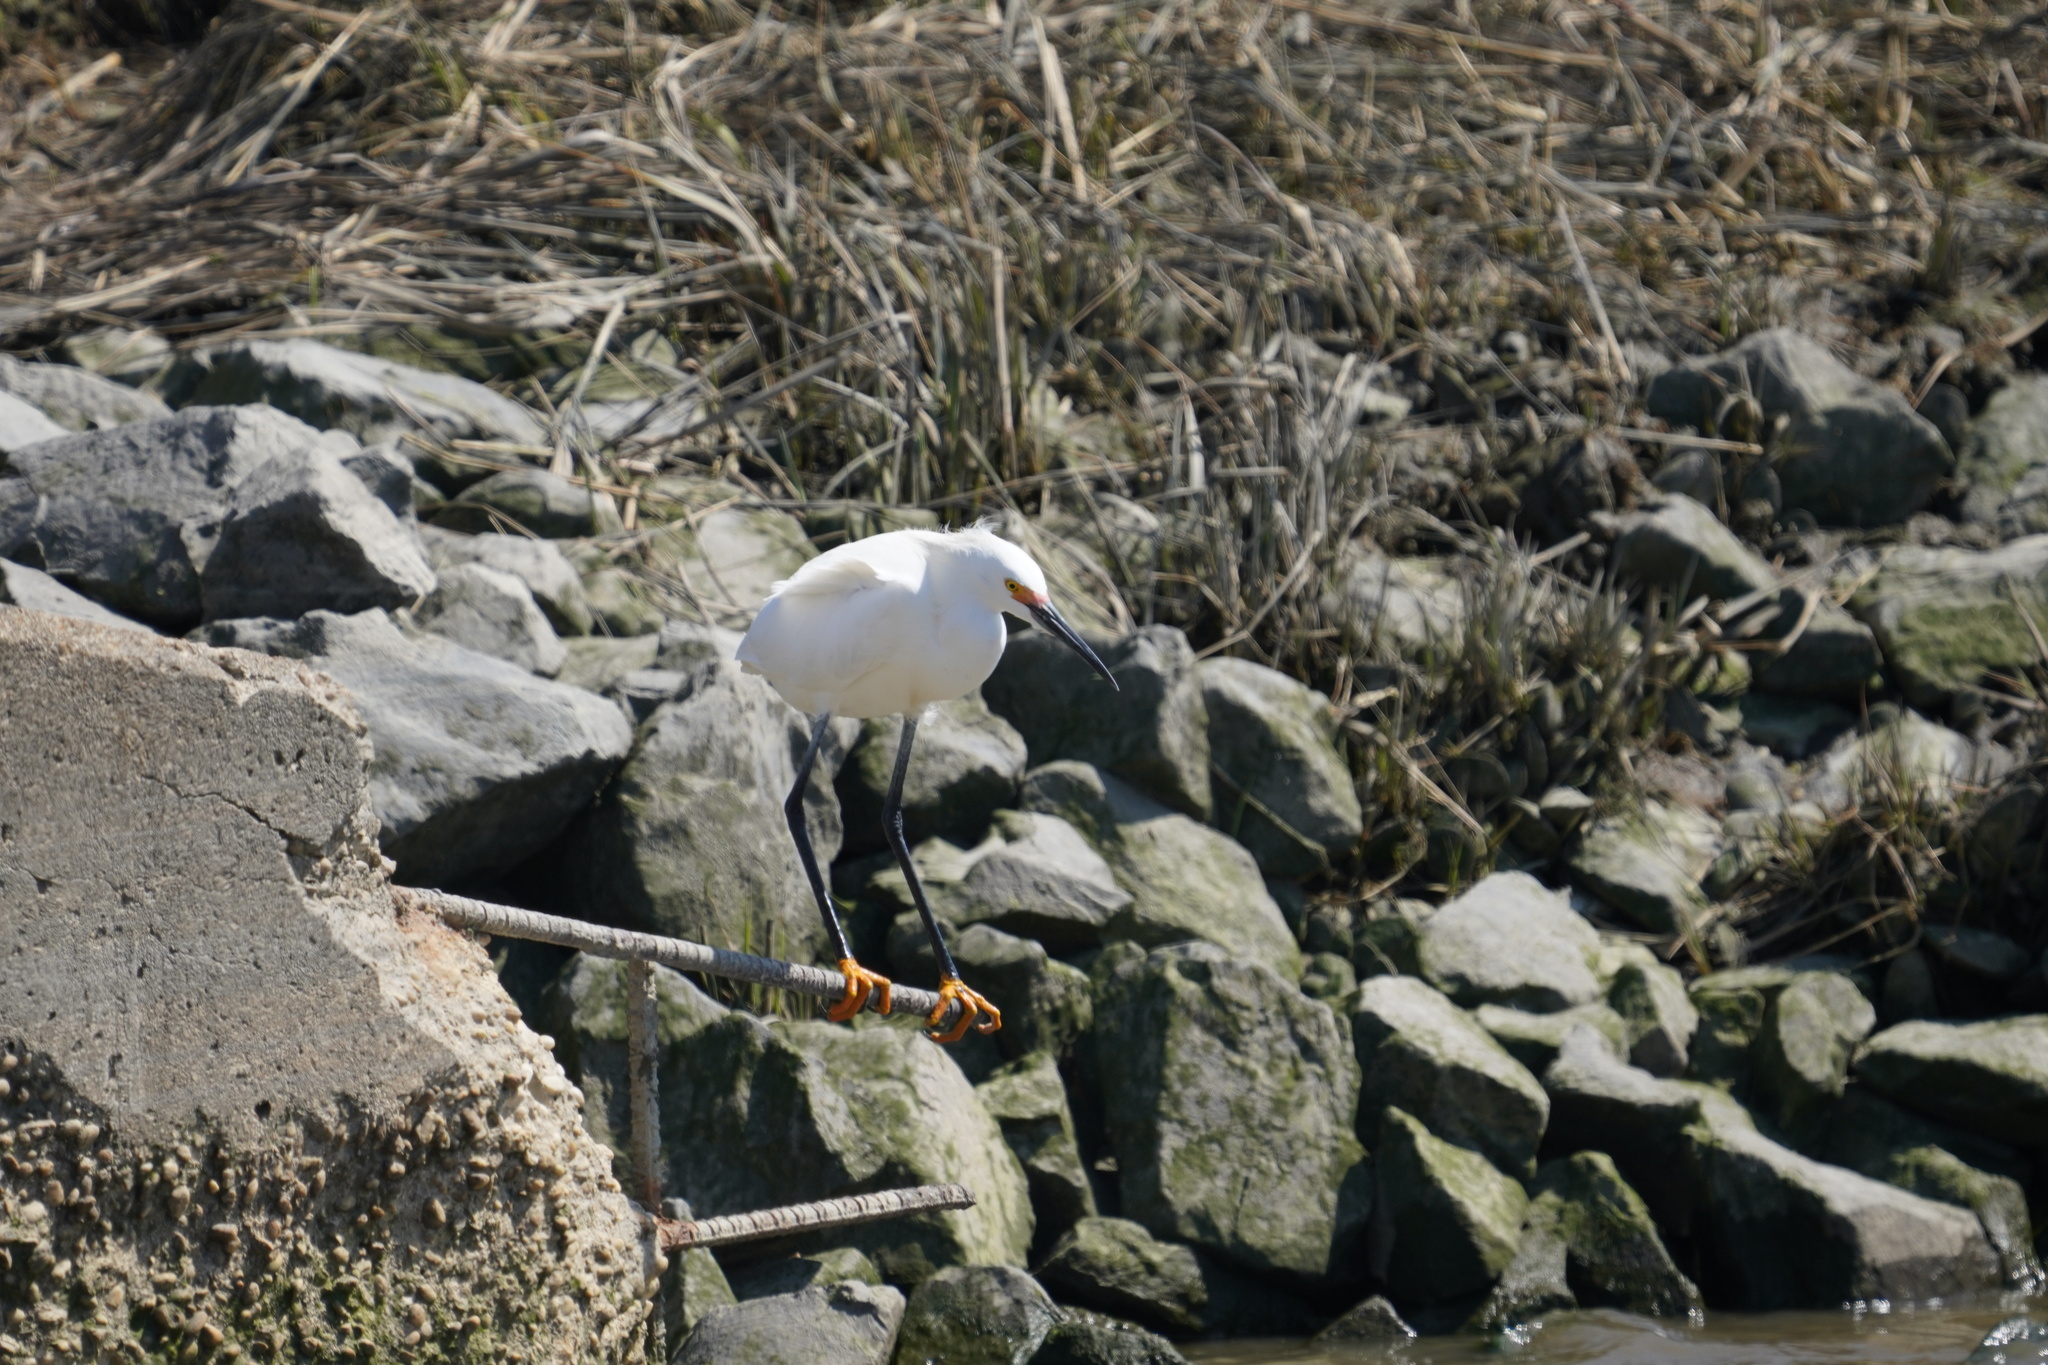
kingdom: Animalia
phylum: Chordata
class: Aves
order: Pelecaniformes
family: Ardeidae
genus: Egretta
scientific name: Egretta thula
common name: Snowy egret
